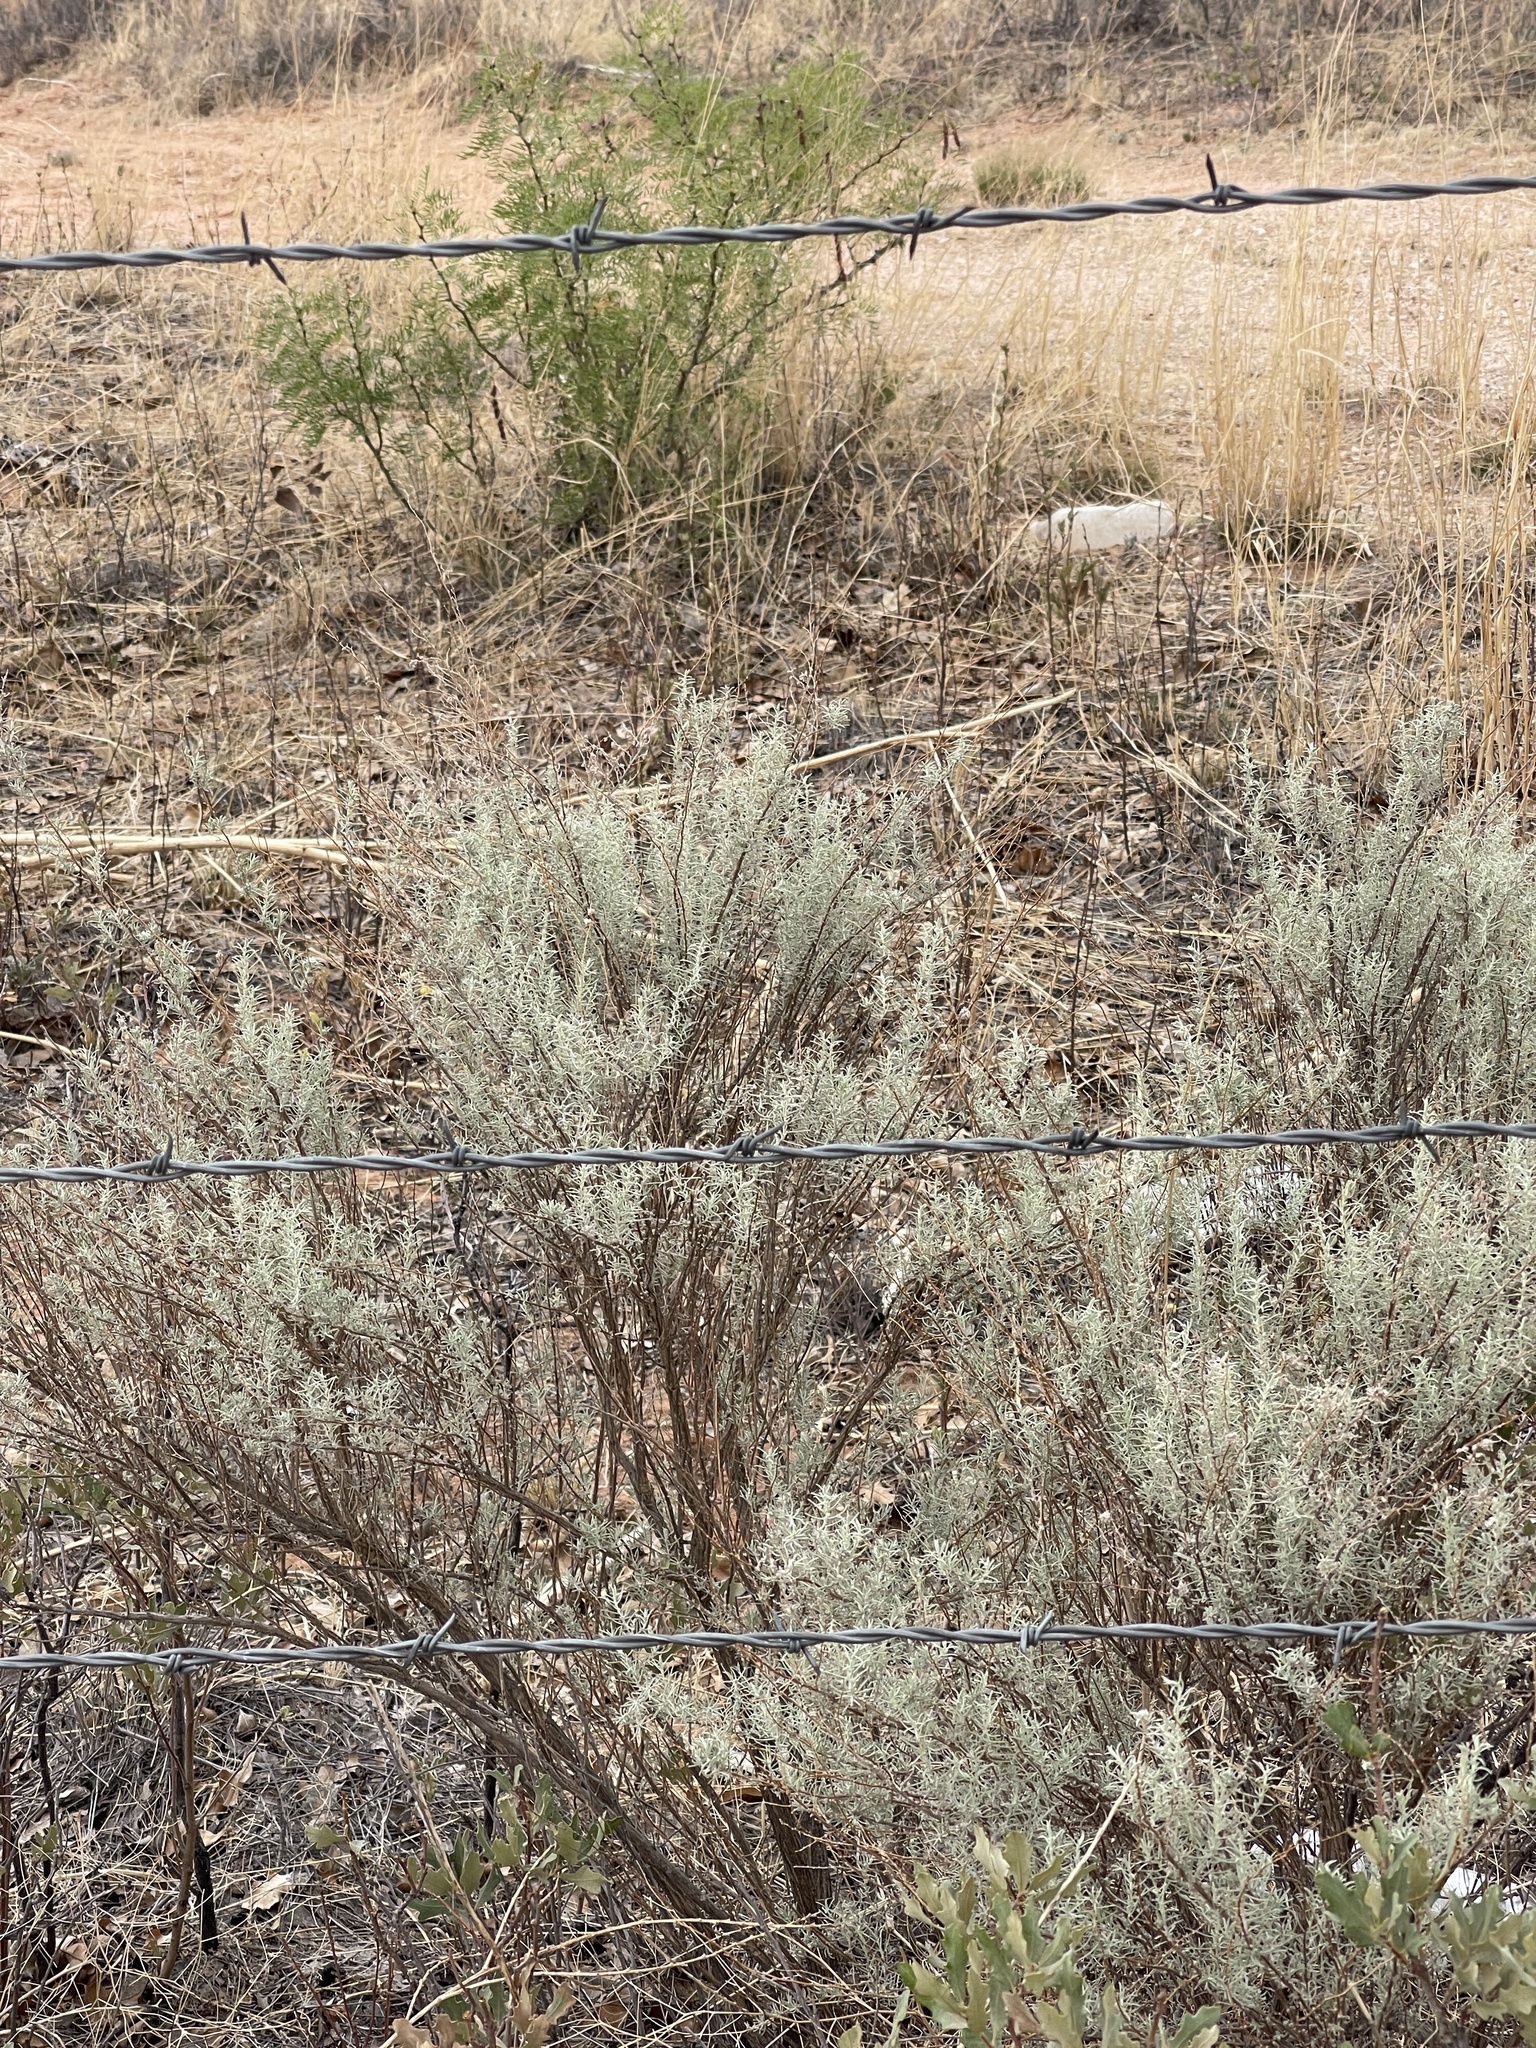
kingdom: Plantae
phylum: Tracheophyta
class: Magnoliopsida
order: Asterales
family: Asteraceae
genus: Artemisia
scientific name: Artemisia filifolia
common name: Sand-sage
